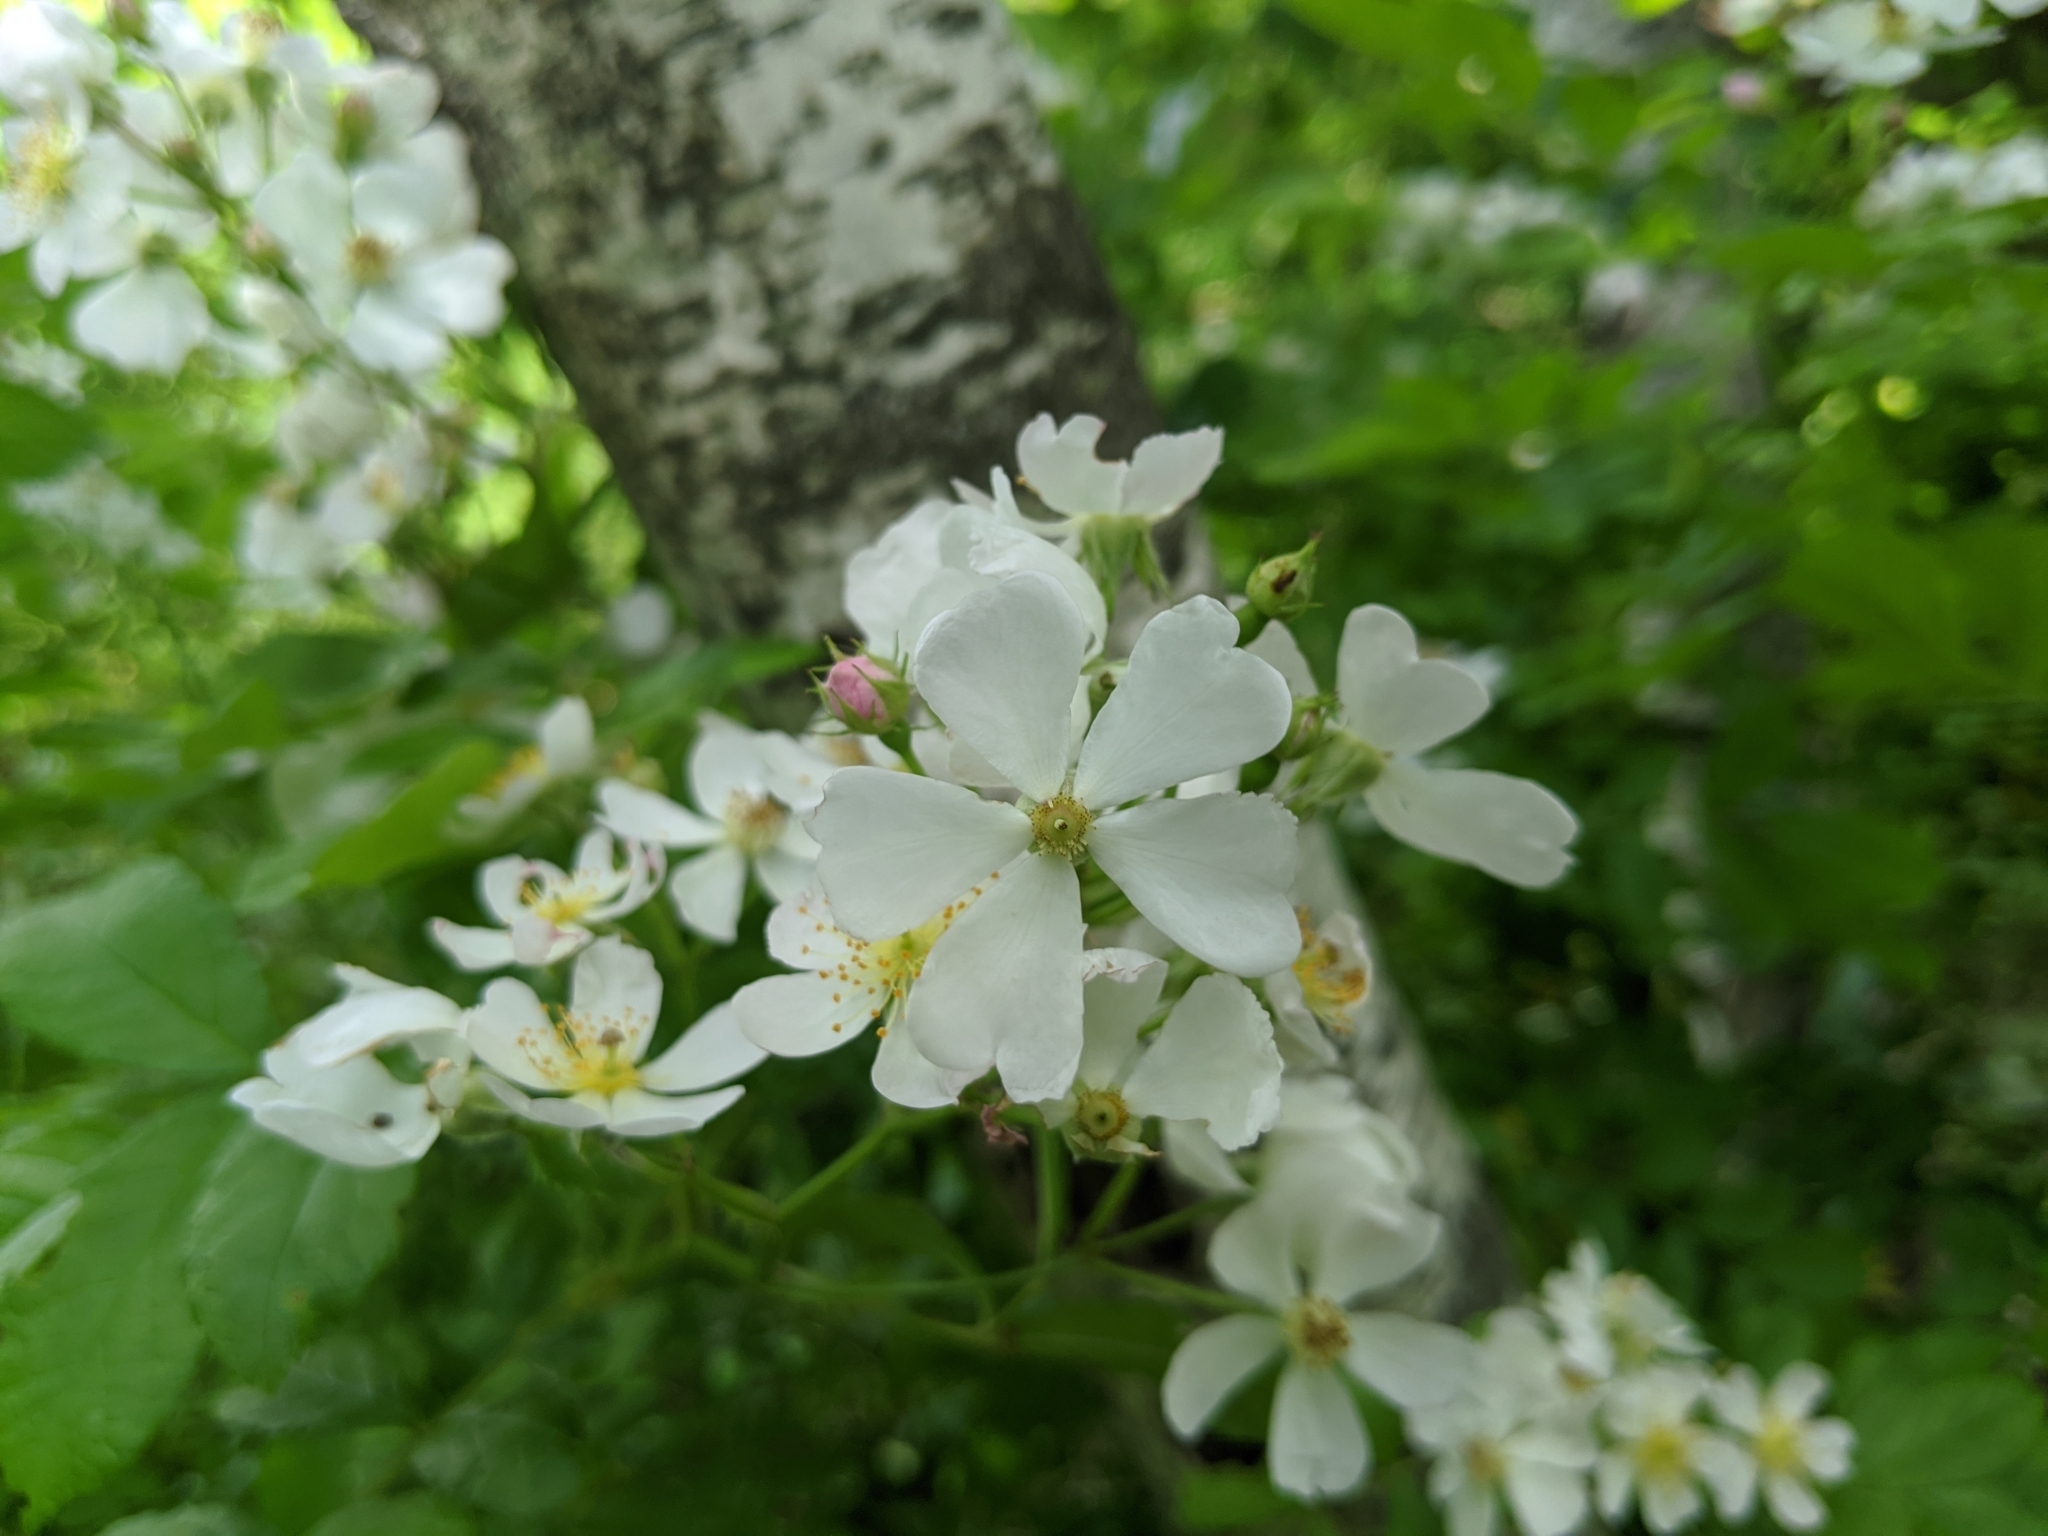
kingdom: Plantae
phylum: Tracheophyta
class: Magnoliopsida
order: Rosales
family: Rosaceae
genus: Rosa
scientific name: Rosa multiflora
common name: Multiflora rose
